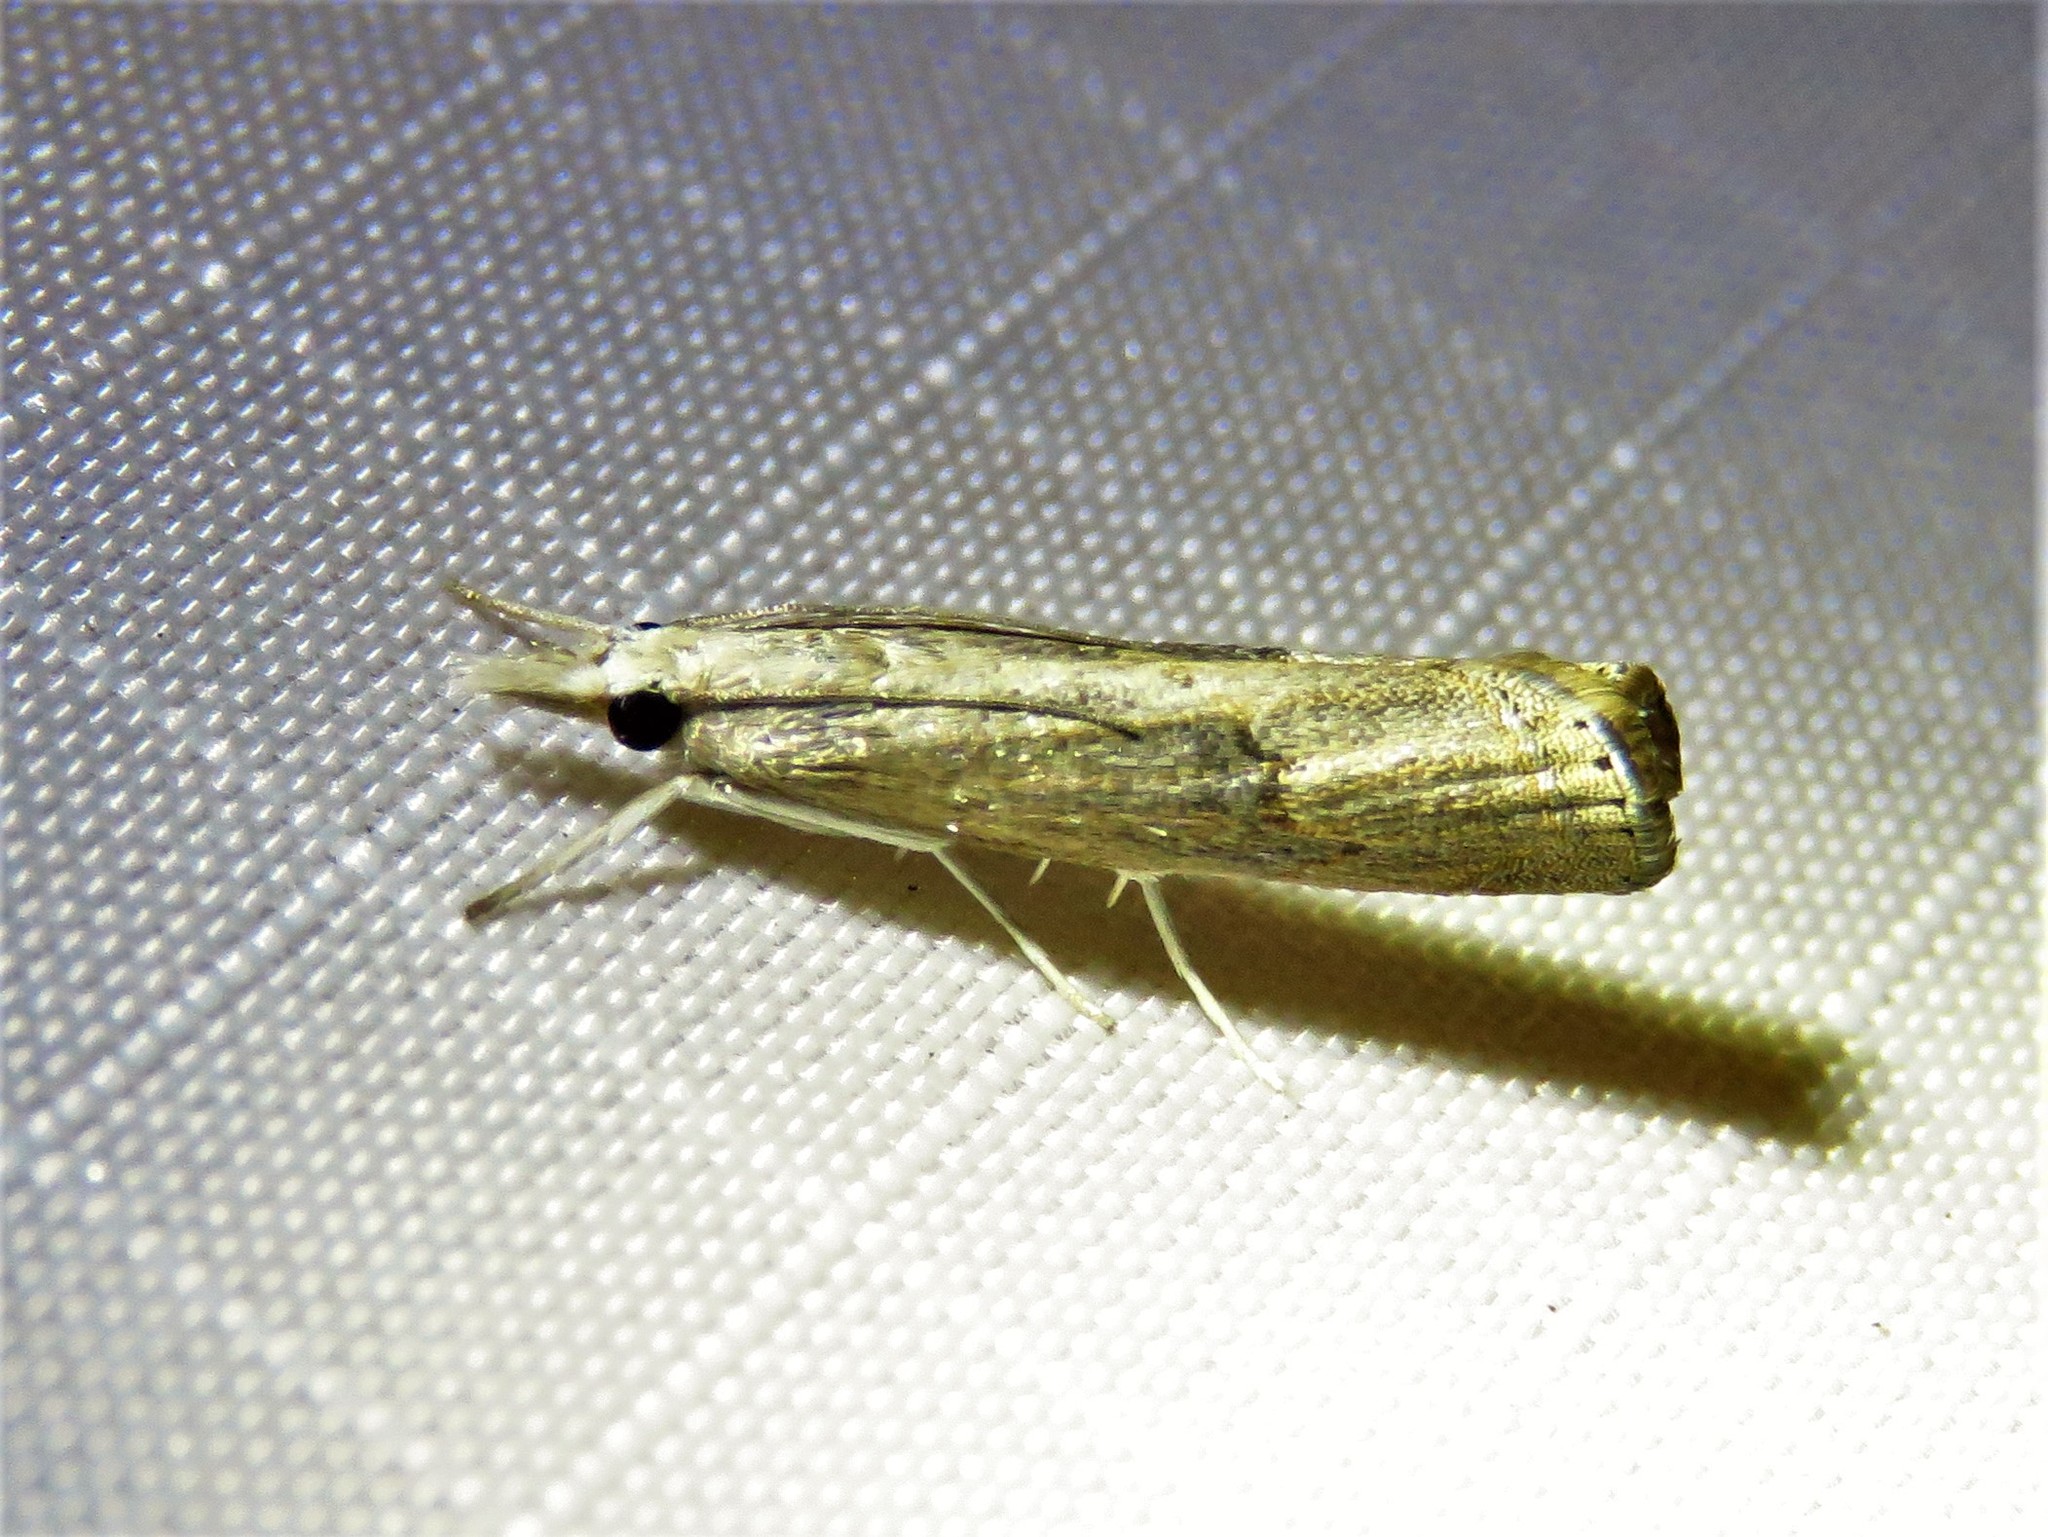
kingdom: Animalia
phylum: Arthropoda
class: Insecta
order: Lepidoptera
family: Crambidae
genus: Parapediasia
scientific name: Parapediasia teterellus
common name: Bluegrass webworm moth
